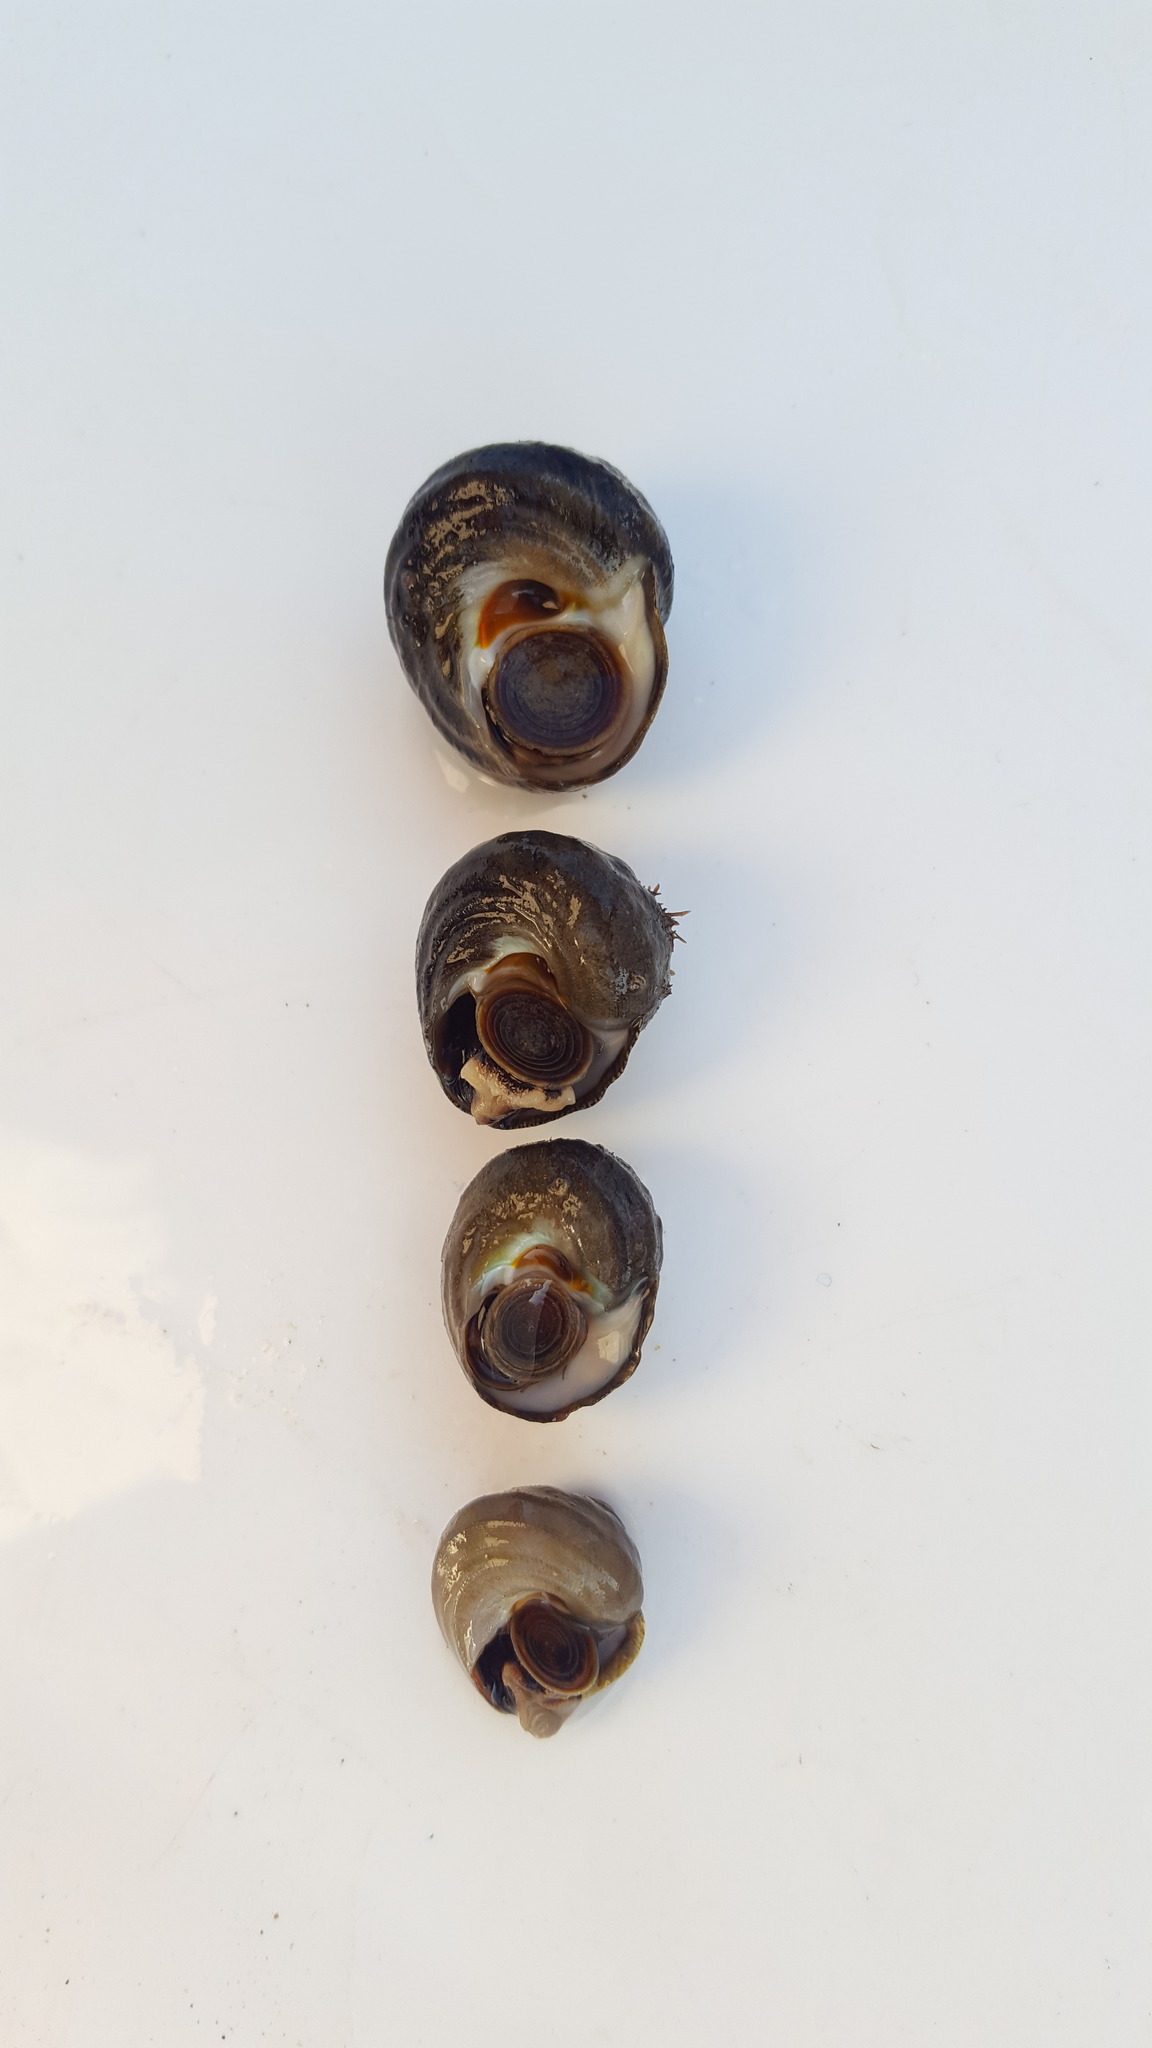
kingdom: Animalia
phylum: Mollusca
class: Gastropoda
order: Trochida
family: Tegulidae
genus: Tegula
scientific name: Tegula aureotincta
